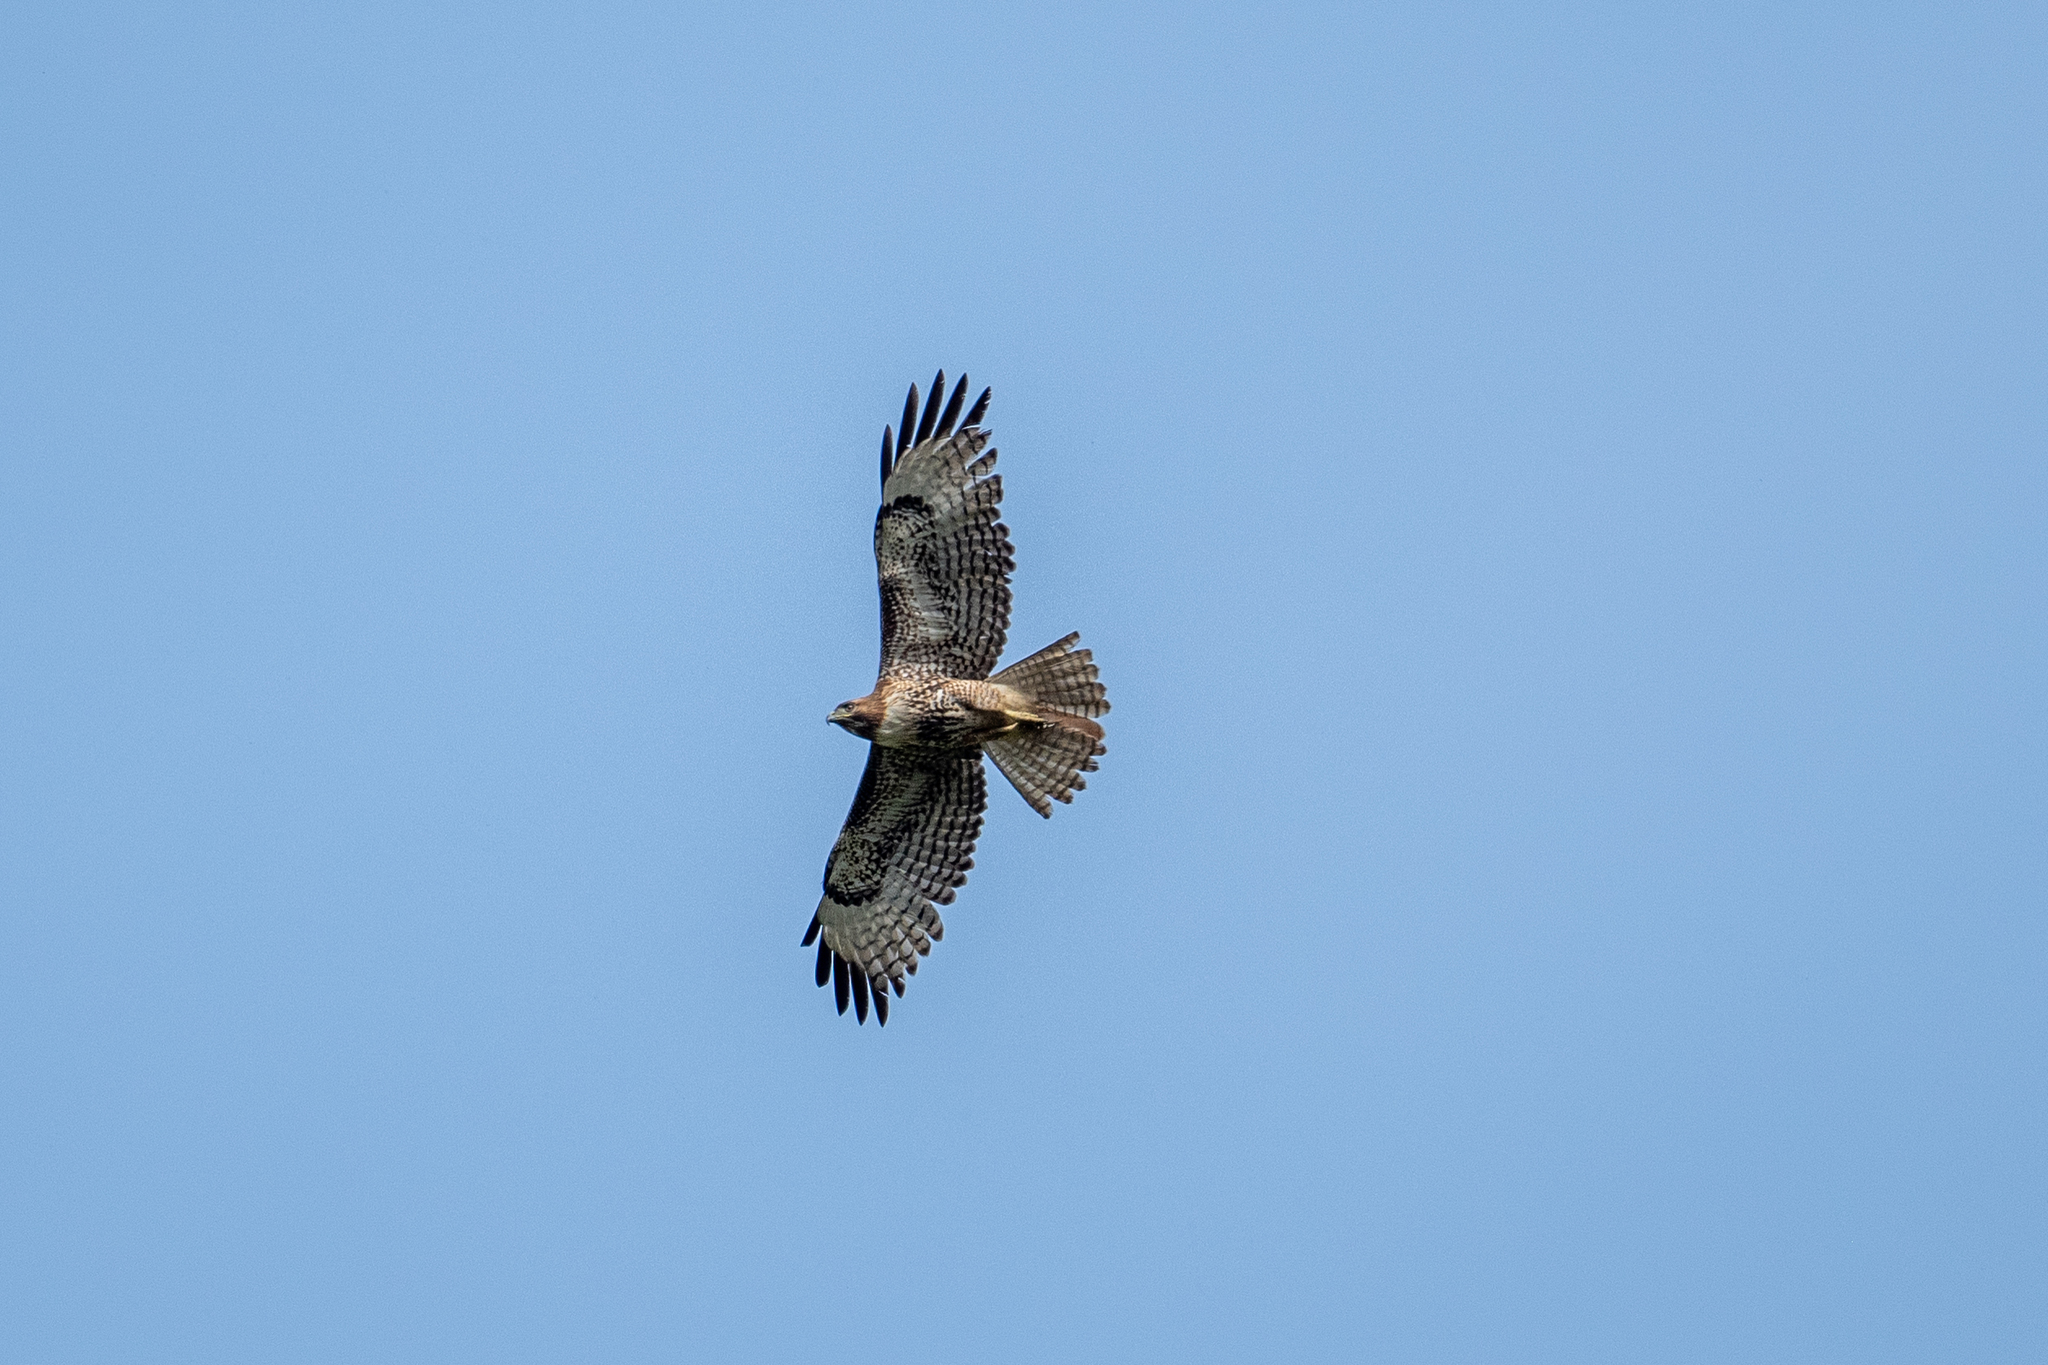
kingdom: Animalia
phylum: Chordata
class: Aves
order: Accipitriformes
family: Accipitridae
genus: Buteo
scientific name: Buteo jamaicensis
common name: Red-tailed hawk
